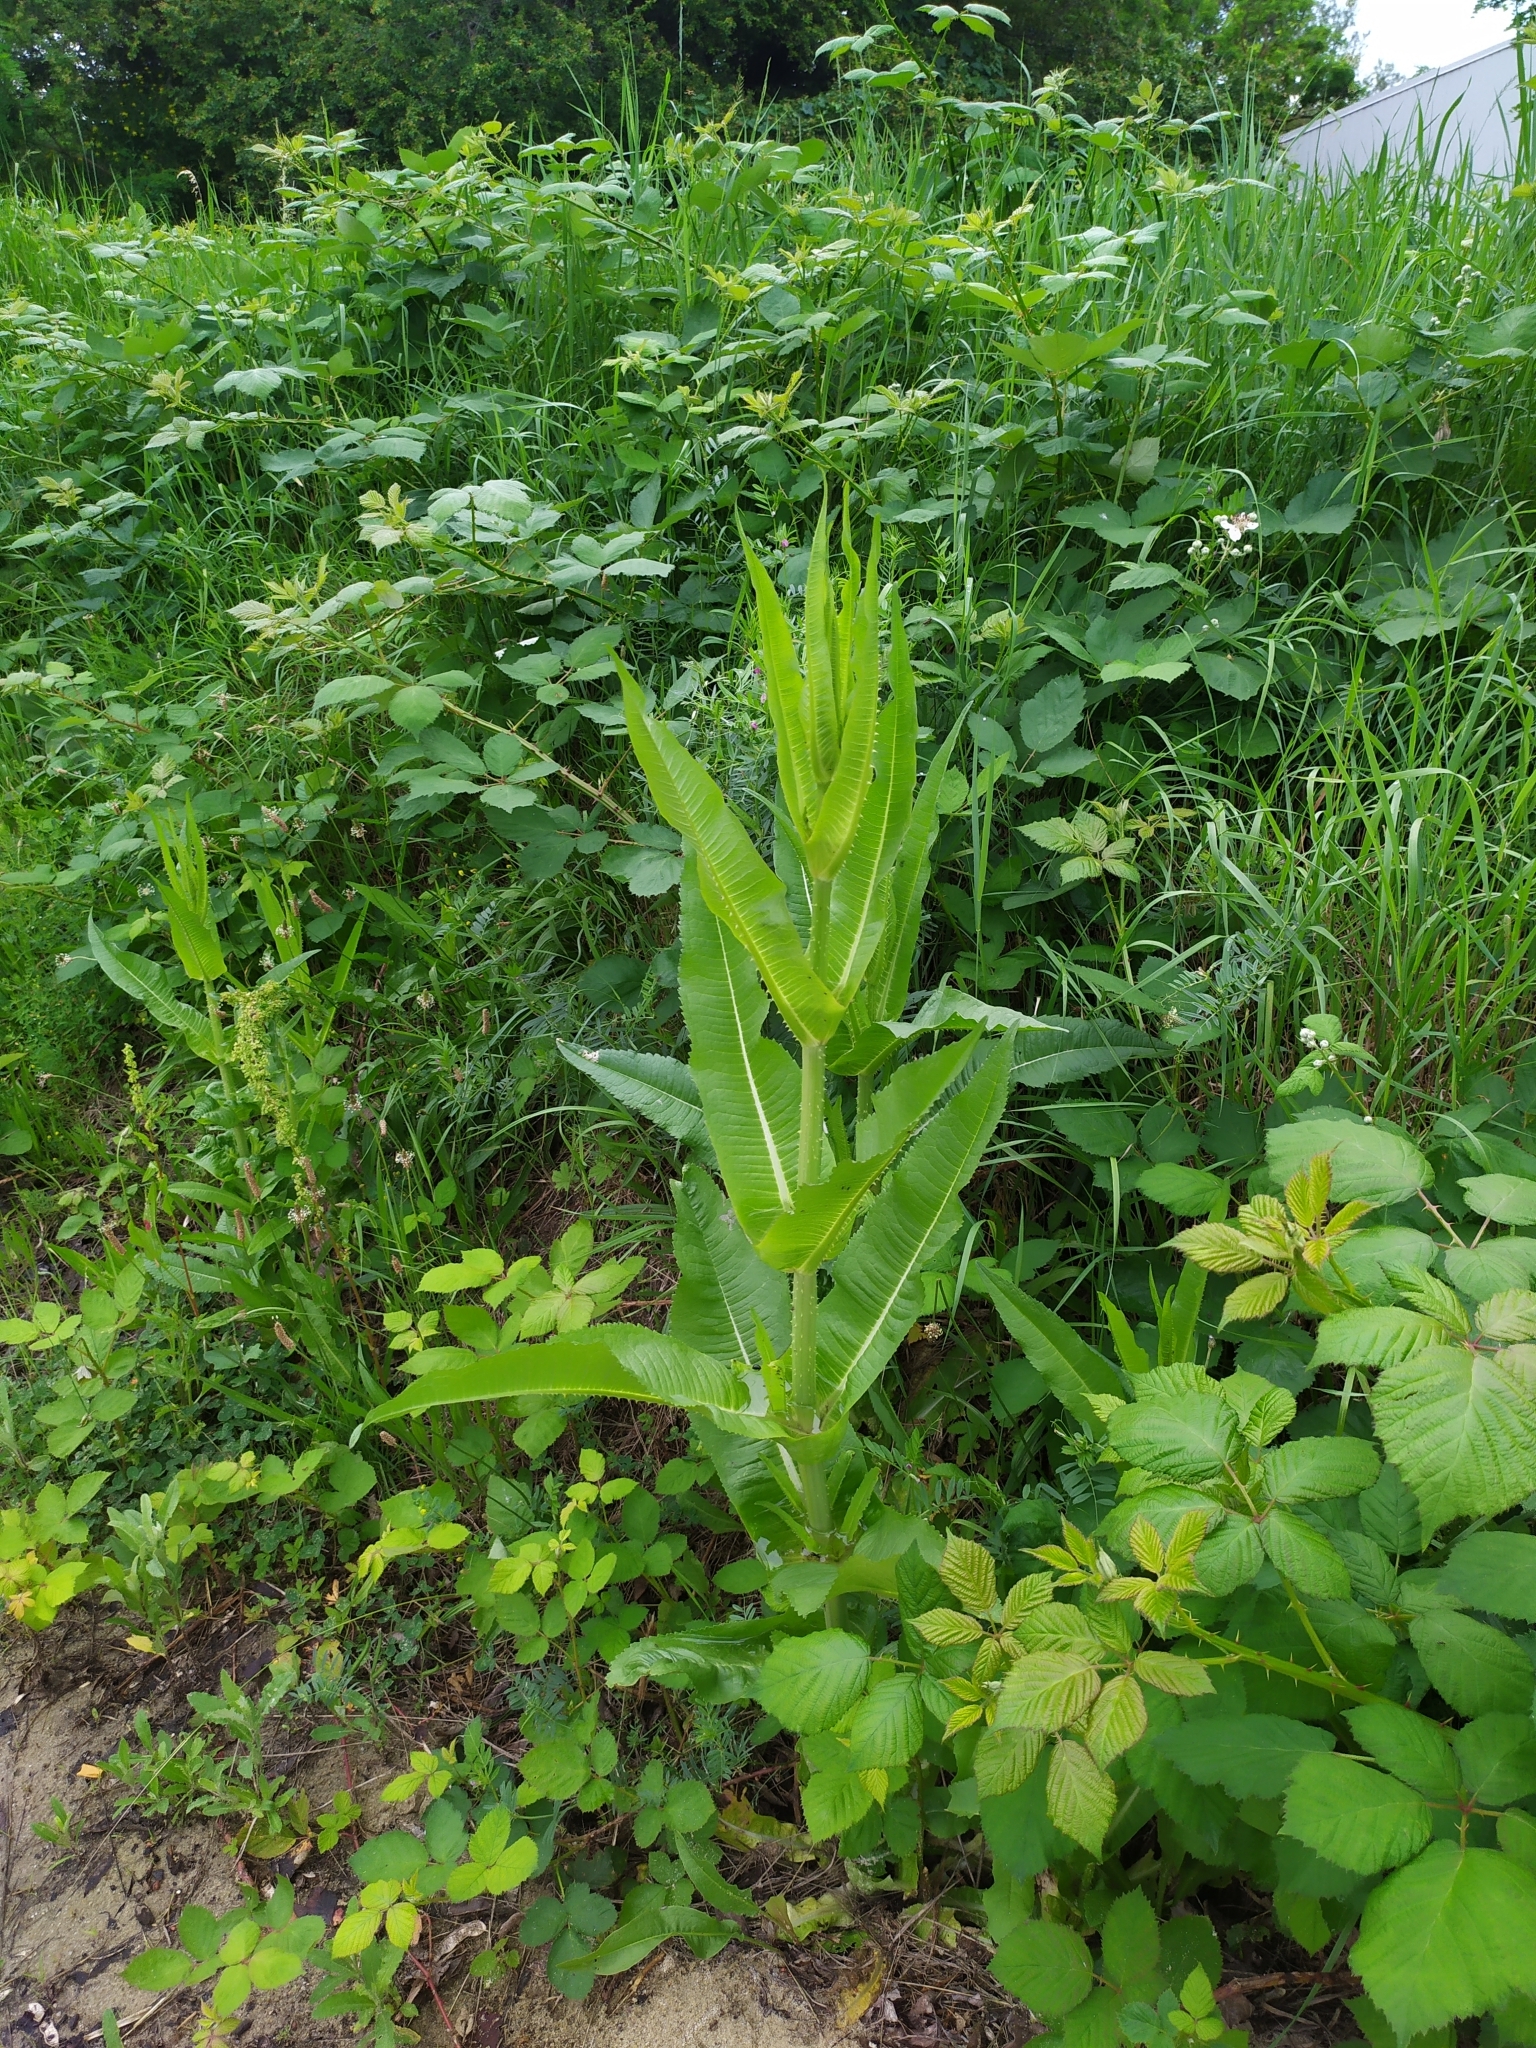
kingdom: Plantae
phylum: Tracheophyta
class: Magnoliopsida
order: Dipsacales
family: Caprifoliaceae
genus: Dipsacus
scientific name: Dipsacus fullonum
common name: Teasel
